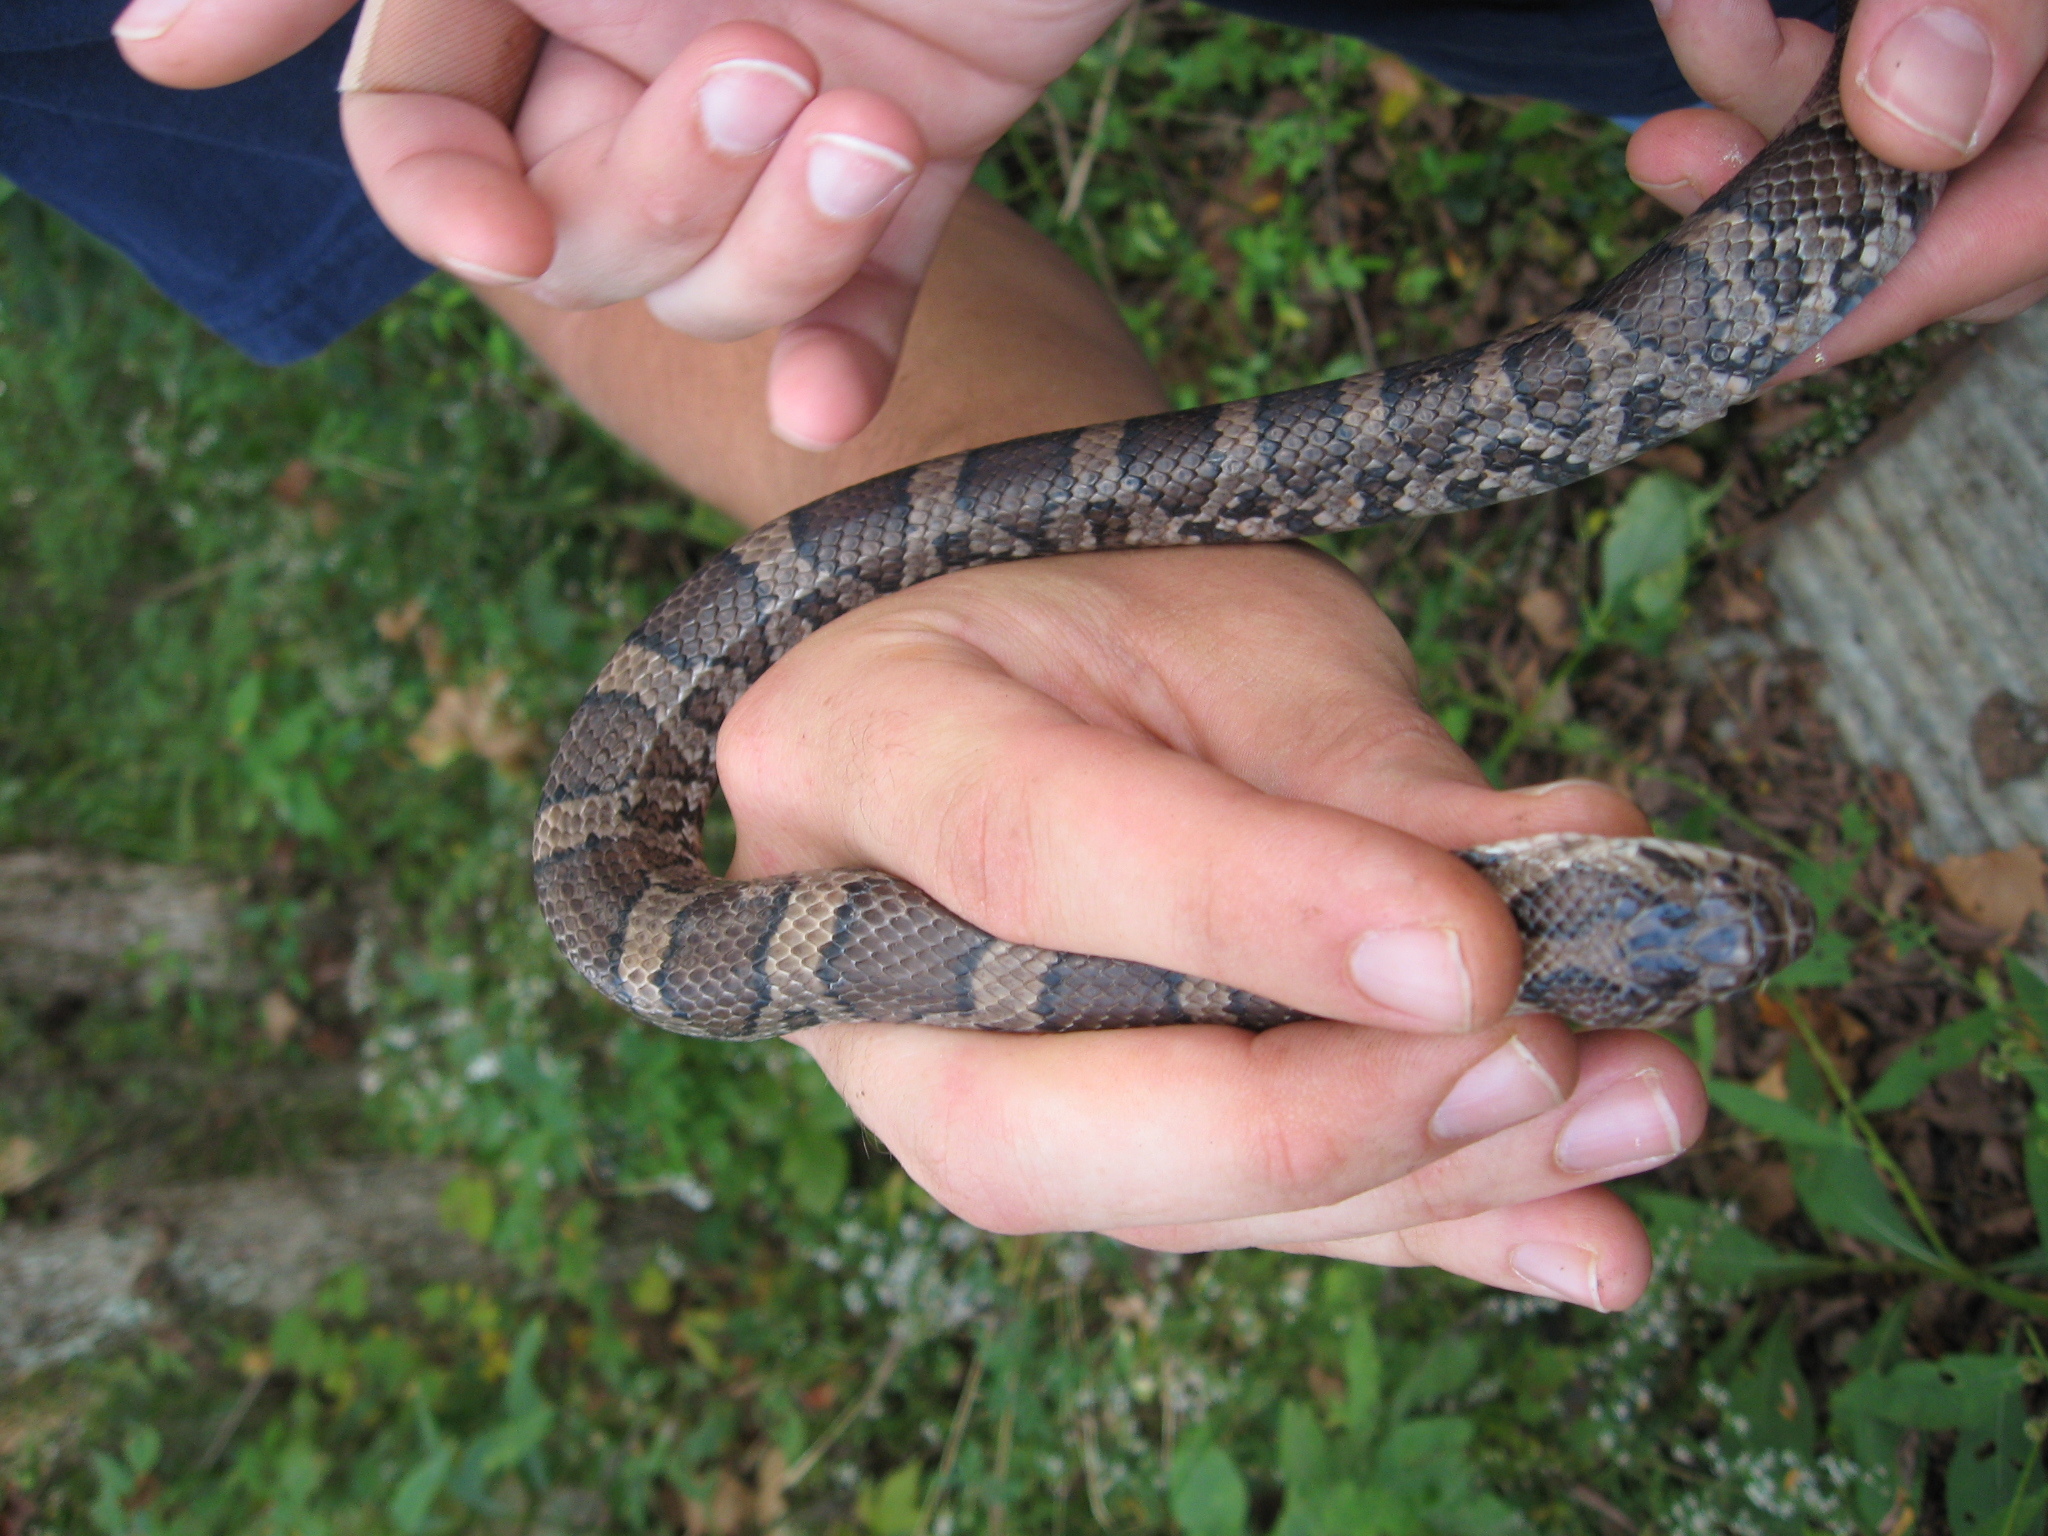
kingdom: Animalia
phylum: Chordata
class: Squamata
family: Colubridae
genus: Lampropeltis
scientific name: Lampropeltis triangulum
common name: Eastern milksnake
